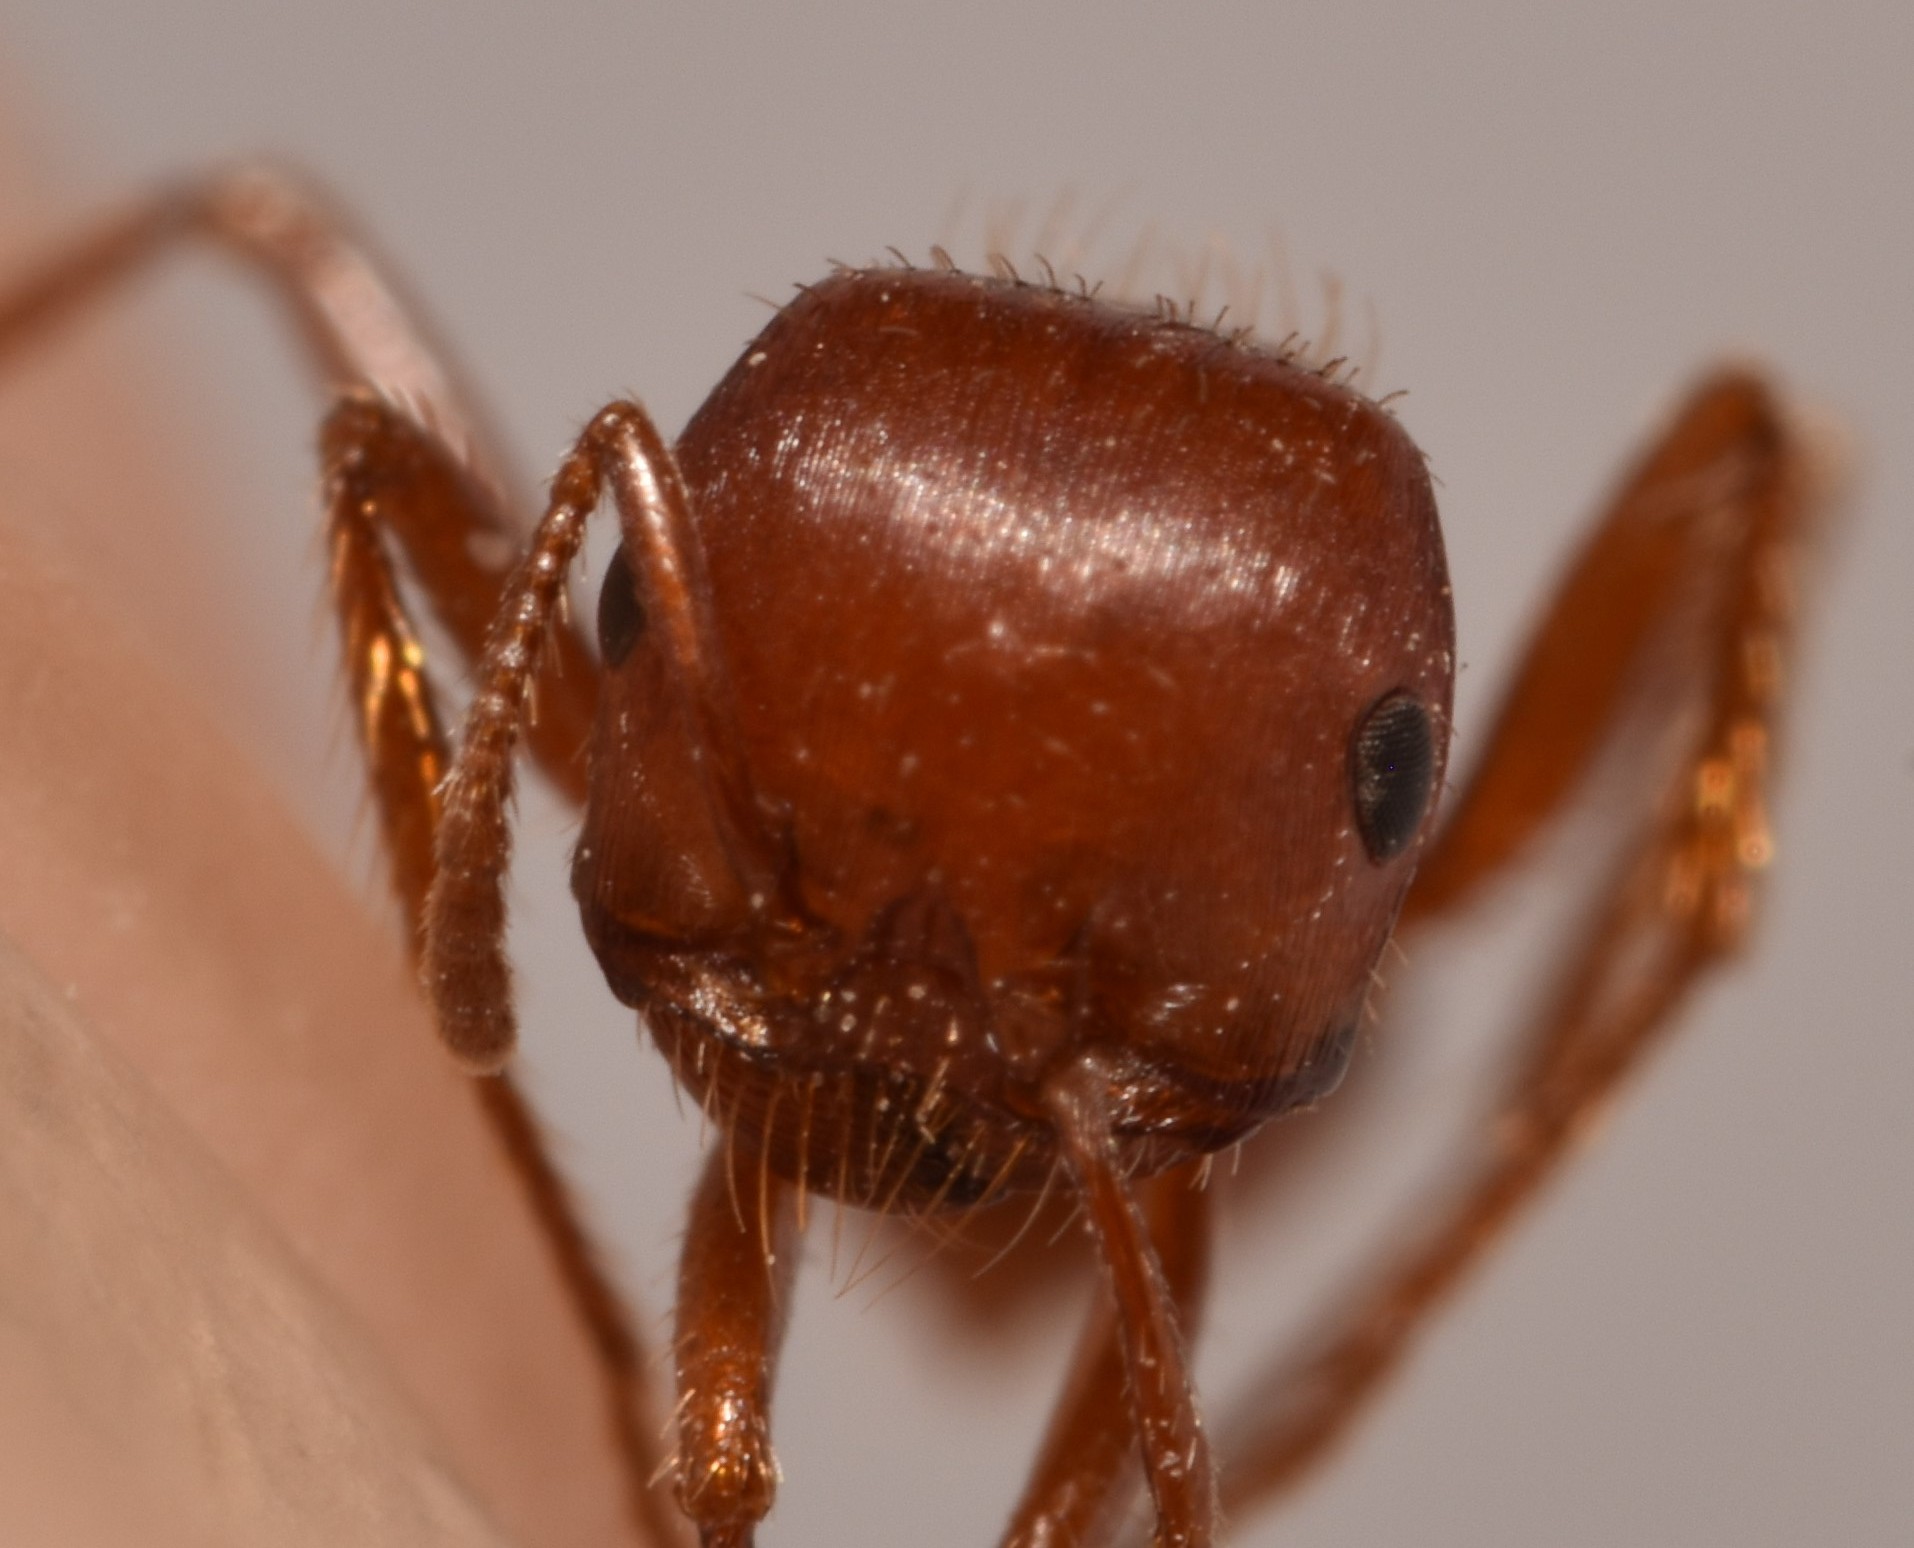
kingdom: Animalia
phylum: Arthropoda
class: Insecta
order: Hymenoptera
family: Formicidae
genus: Pogonomyrmex
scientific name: Pogonomyrmex desertorum
